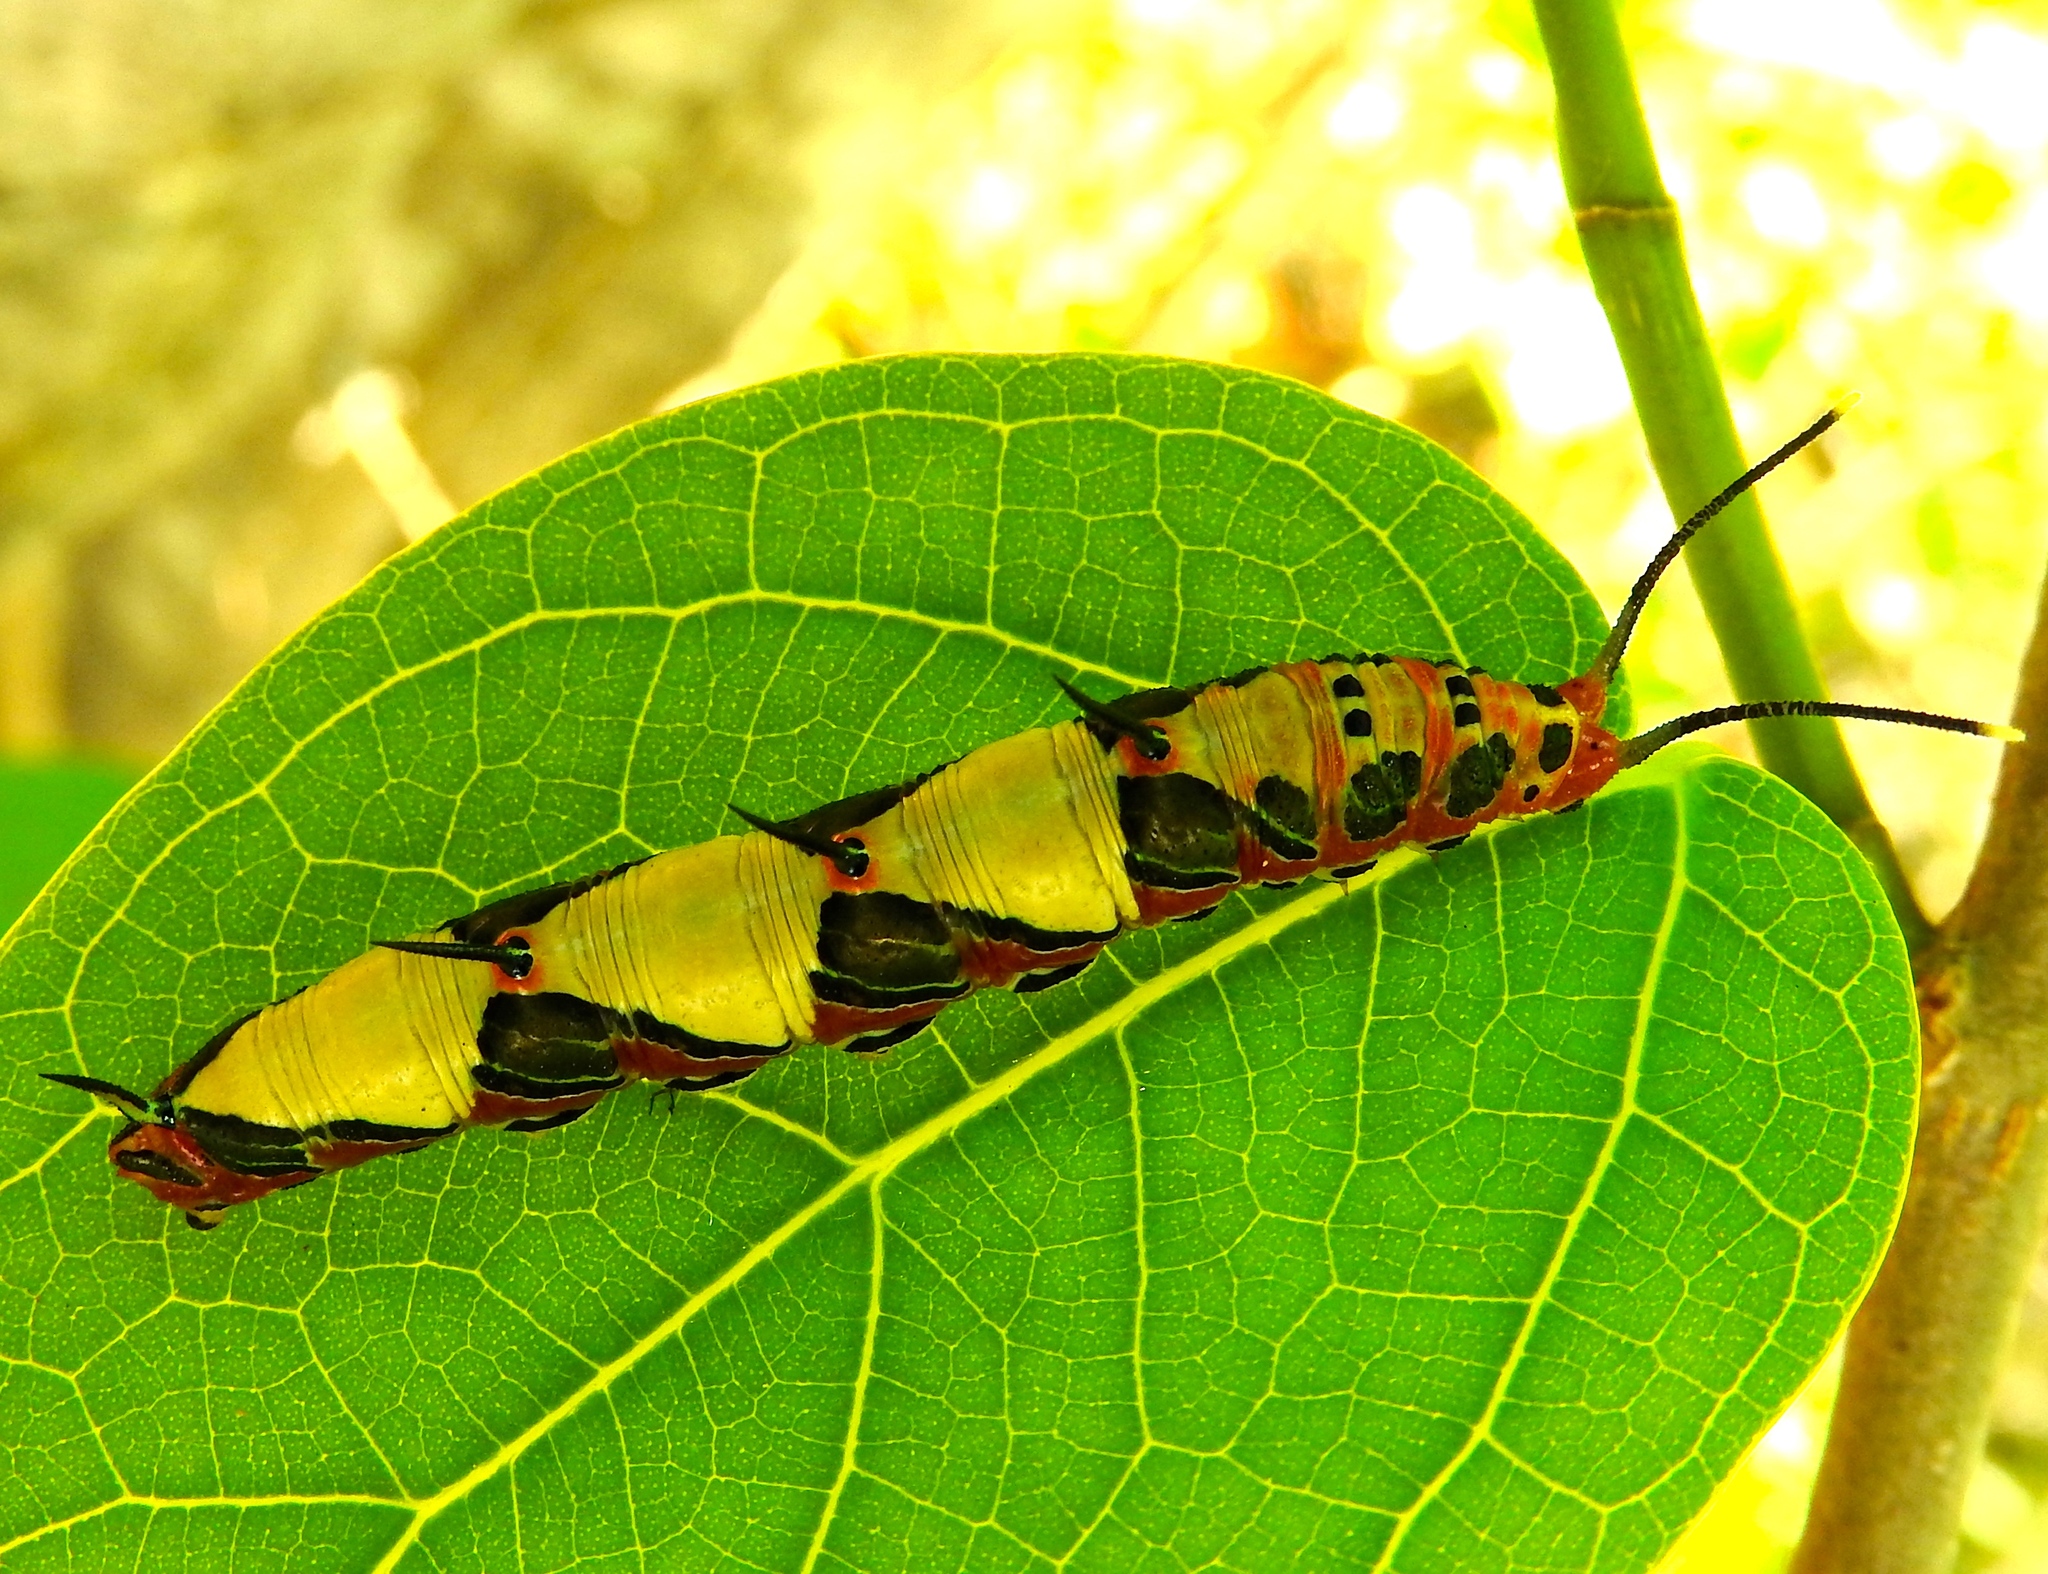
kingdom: Animalia
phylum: Arthropoda
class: Insecta
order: Lepidoptera
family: Nymphalidae
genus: Marpesia
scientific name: Marpesia petreus
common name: Red dagger wing
